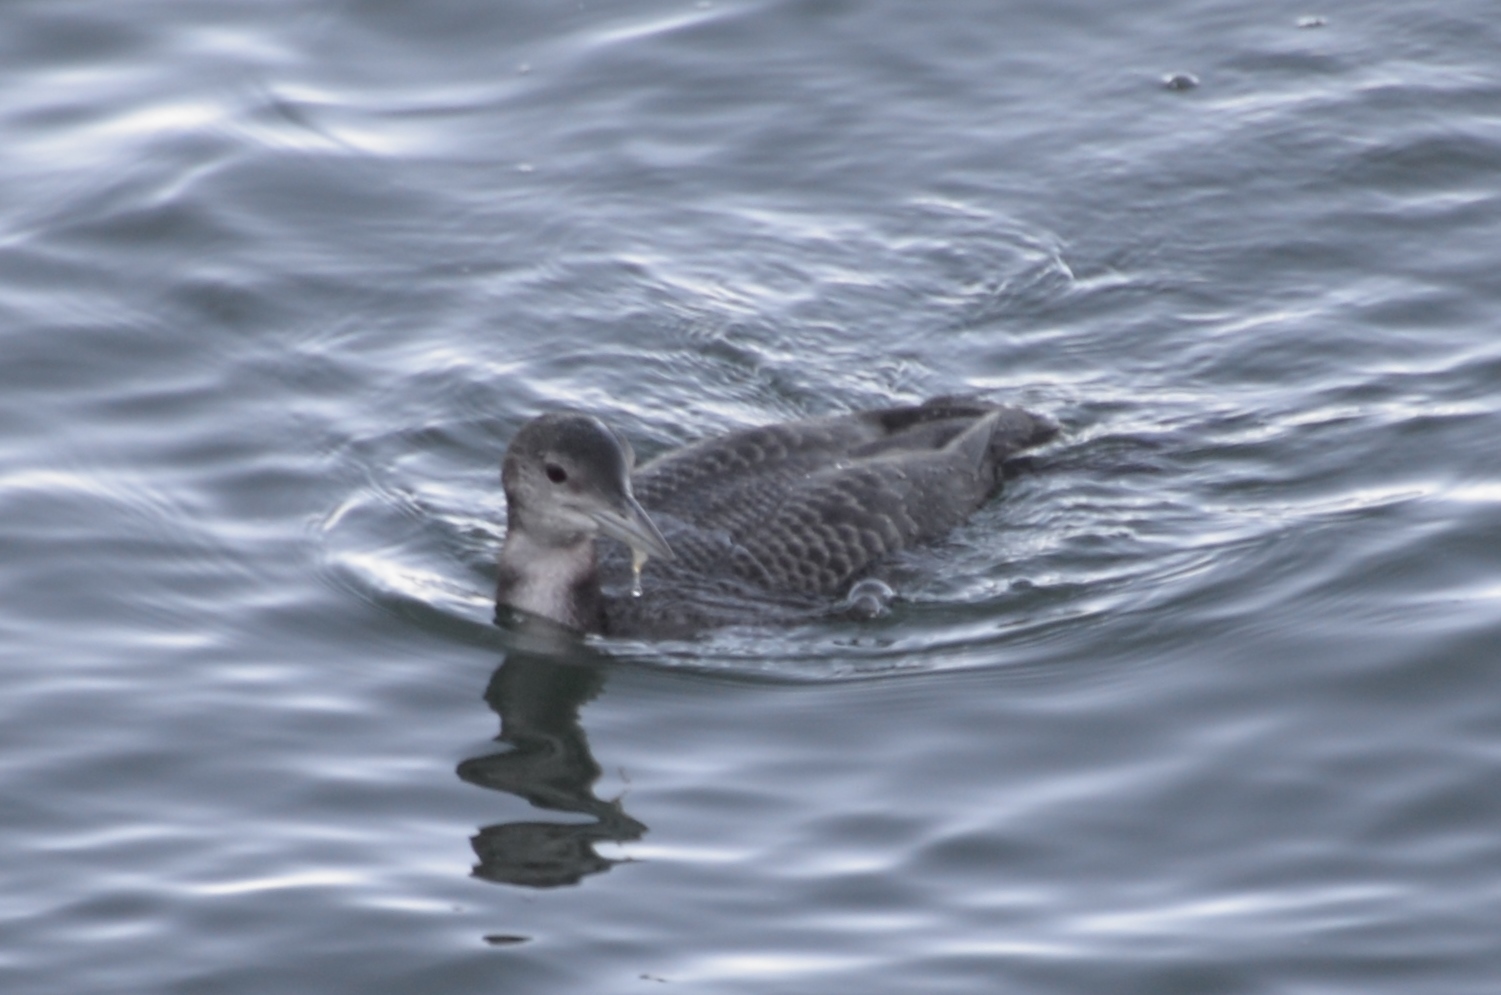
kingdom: Animalia
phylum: Chordata
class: Aves
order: Gaviiformes
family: Gaviidae
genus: Gavia
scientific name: Gavia immer
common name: Common loon
